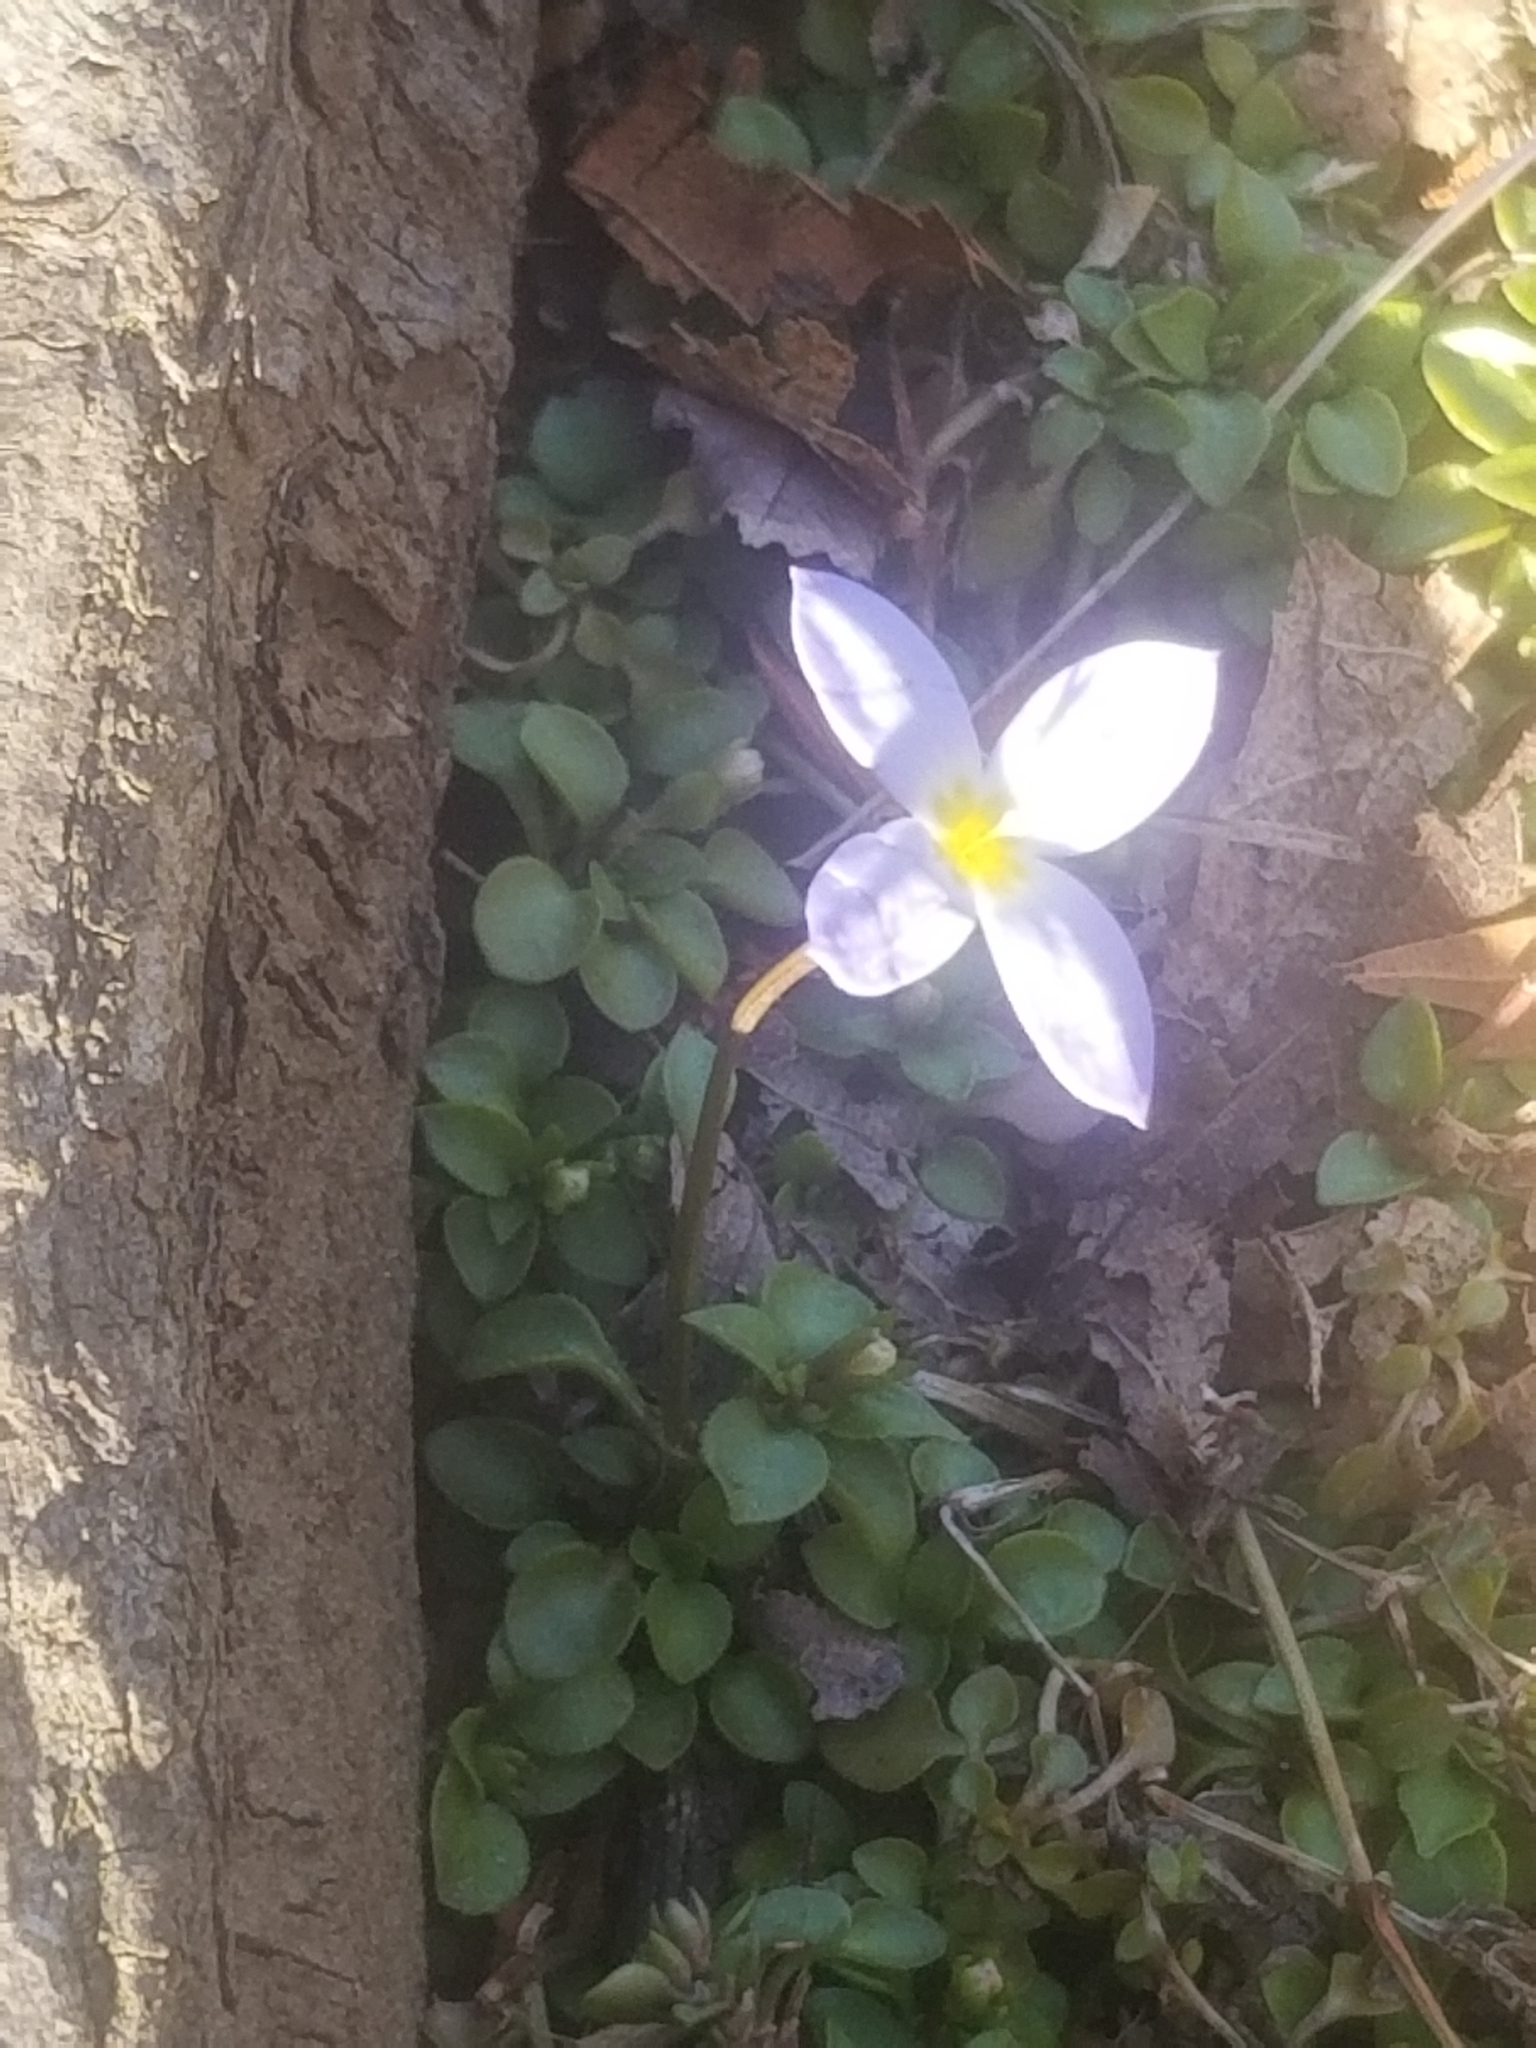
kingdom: Plantae
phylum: Tracheophyta
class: Magnoliopsida
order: Gentianales
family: Rubiaceae
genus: Houstonia
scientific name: Houstonia serpyllifolia
